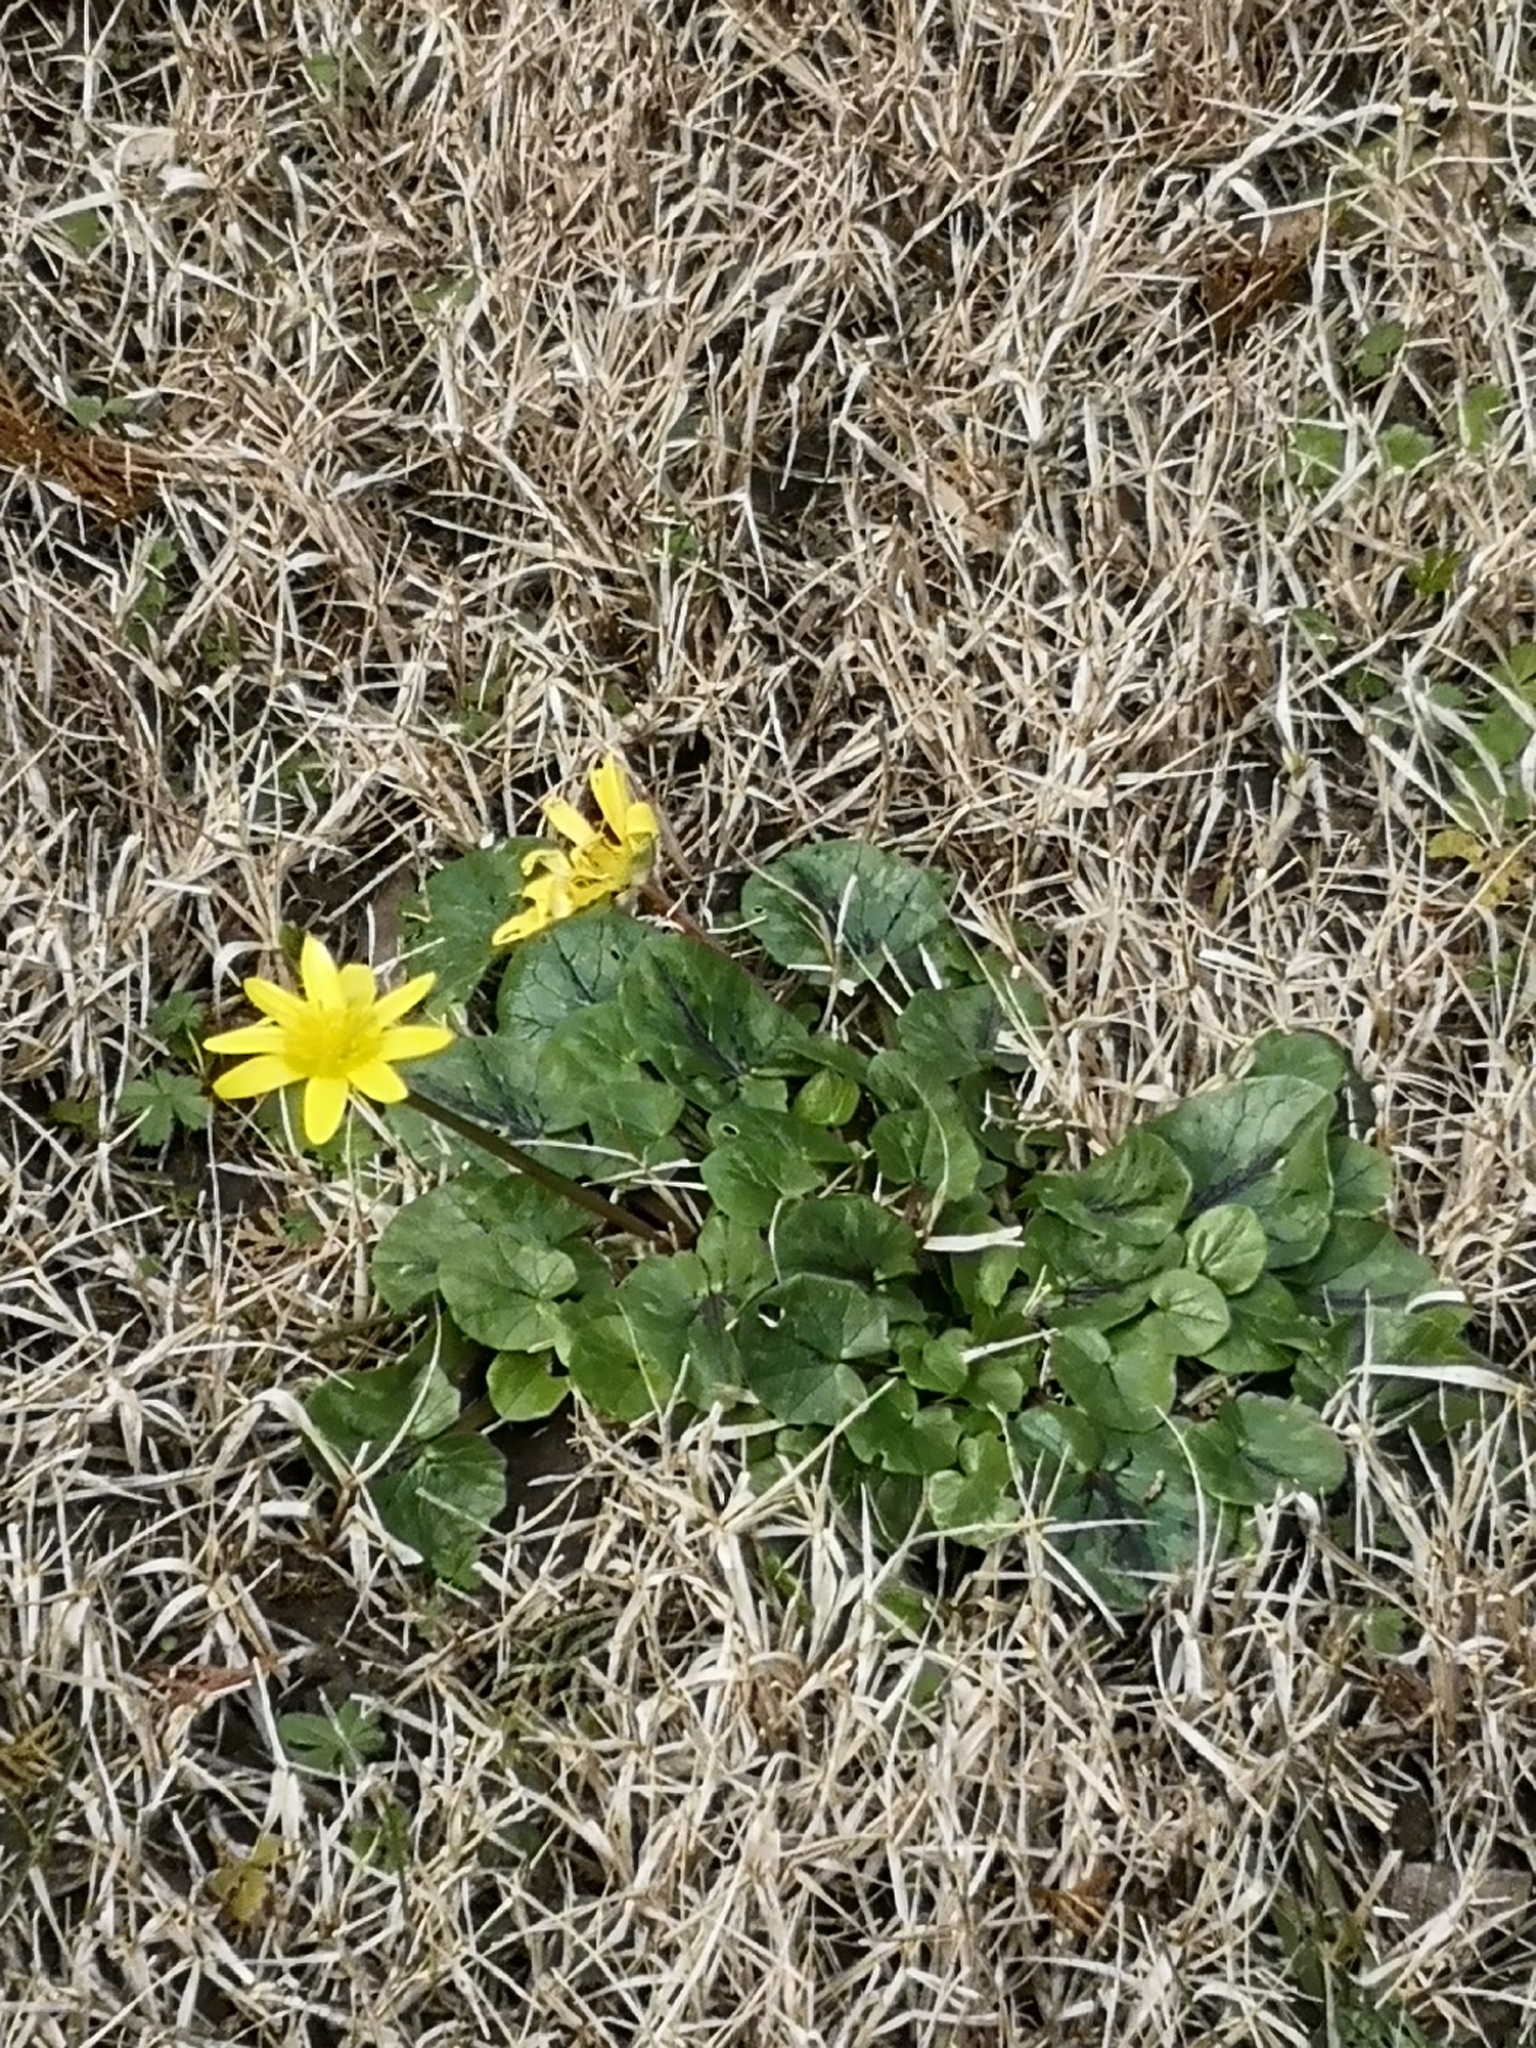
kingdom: Plantae
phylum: Tracheophyta
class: Magnoliopsida
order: Ranunculales
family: Ranunculaceae
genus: Ficaria
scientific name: Ficaria verna
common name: Lesser celandine
